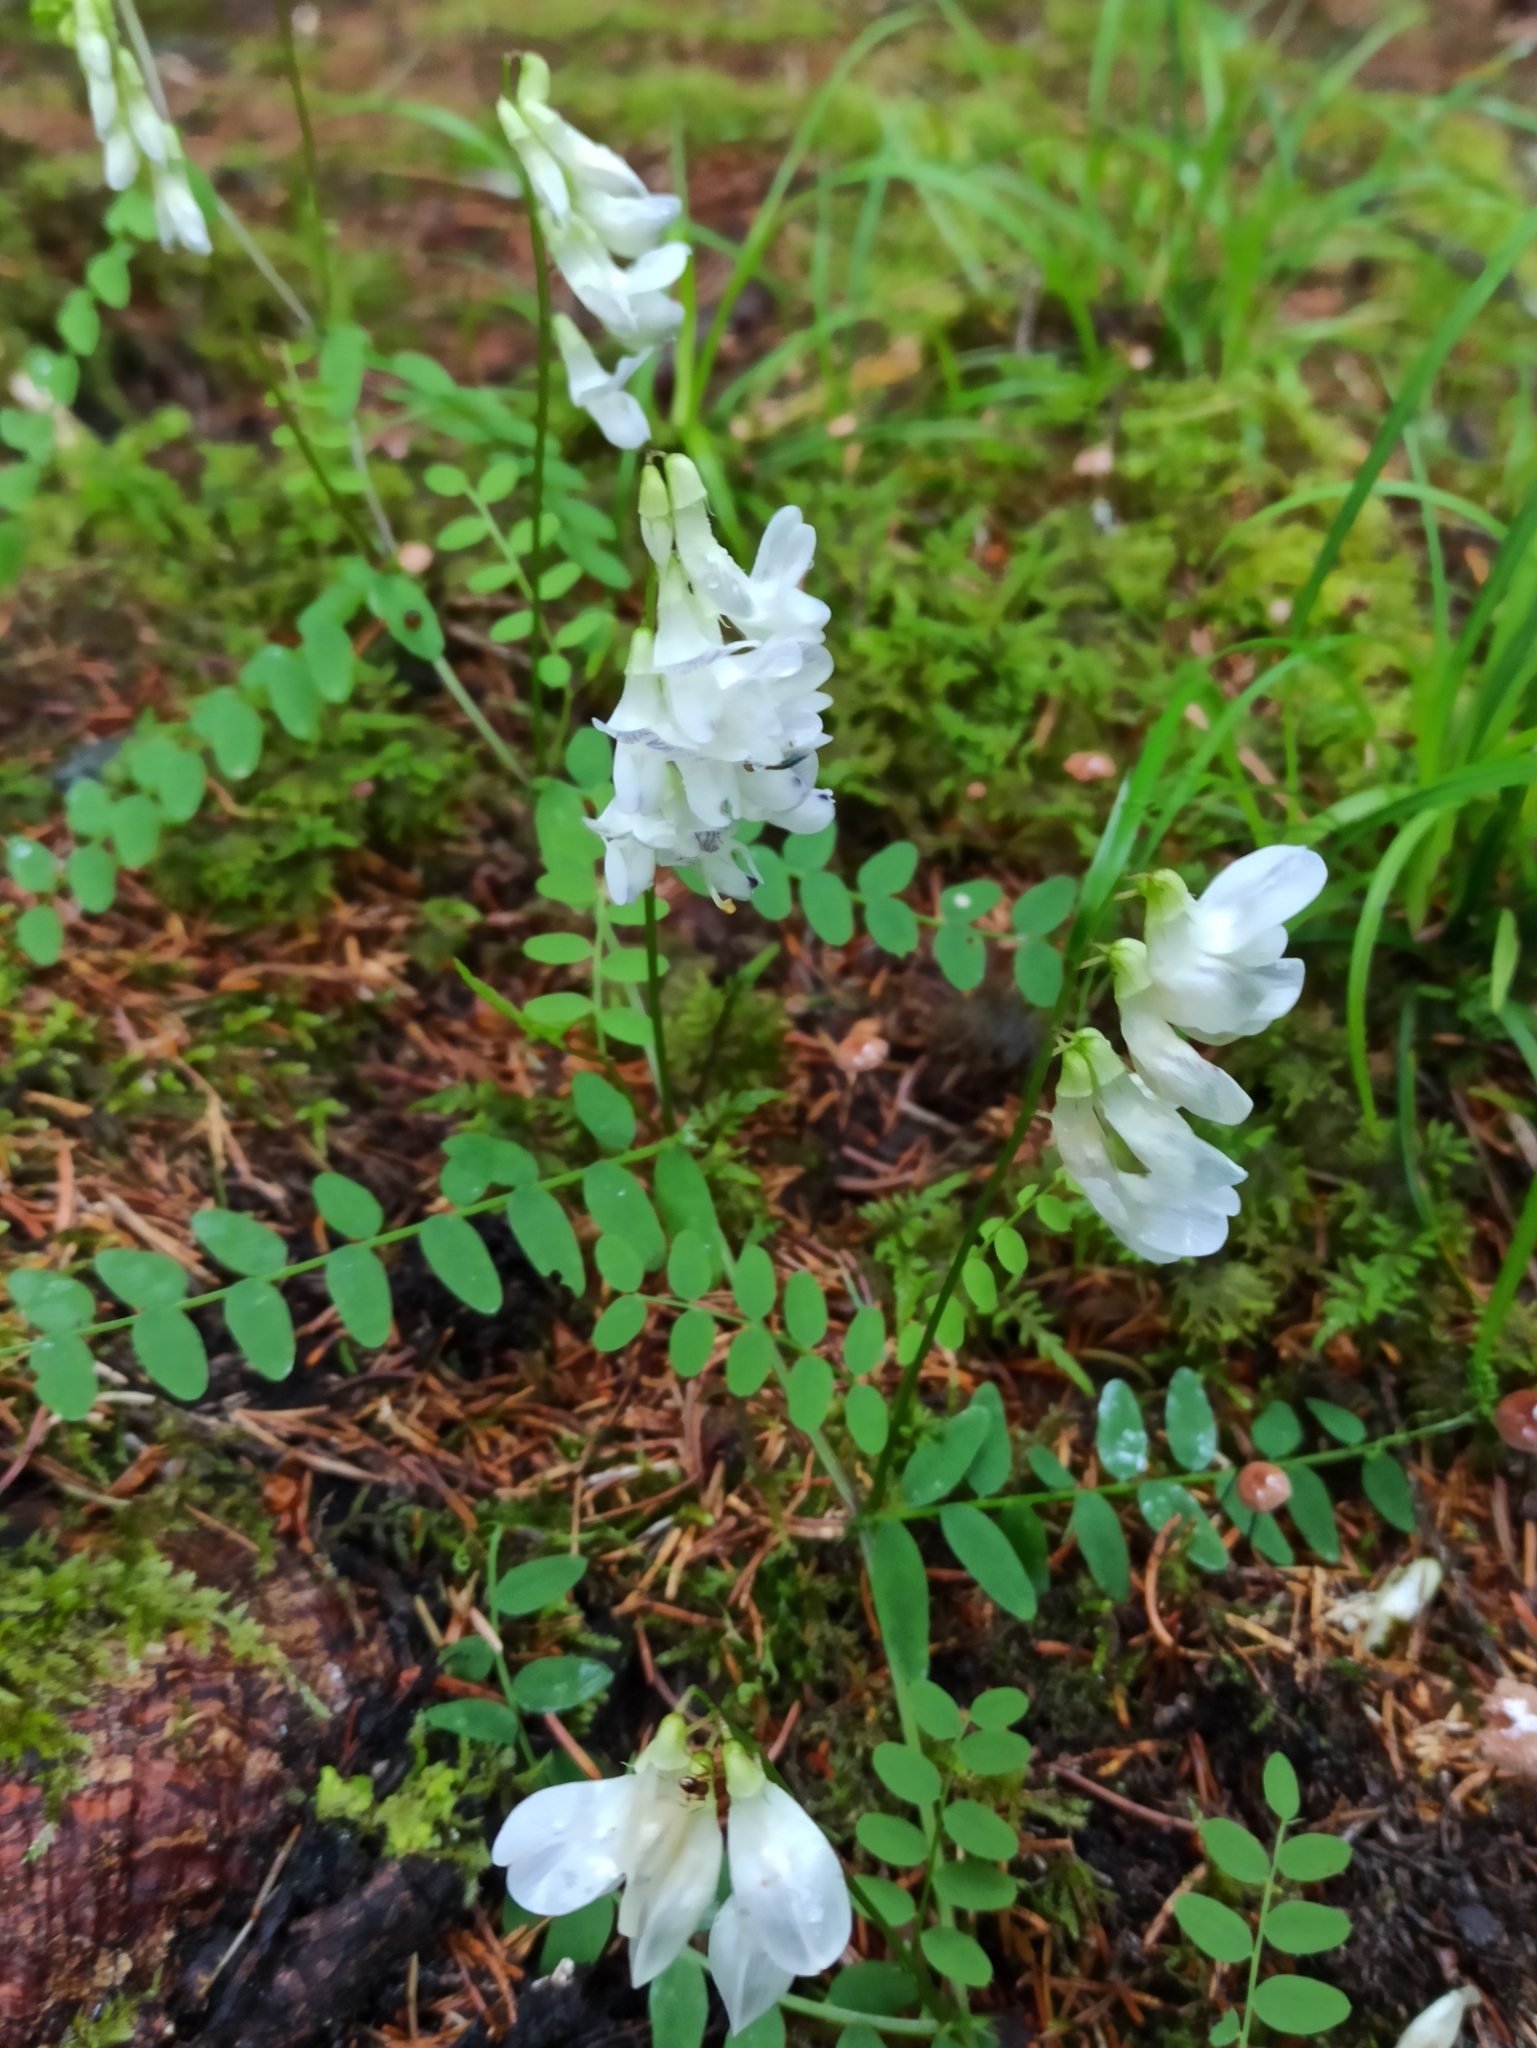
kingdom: Plantae
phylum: Tracheophyta
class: Magnoliopsida
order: Fabales
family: Fabaceae
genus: Vicia
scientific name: Vicia sylvatica
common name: Wood vetch
